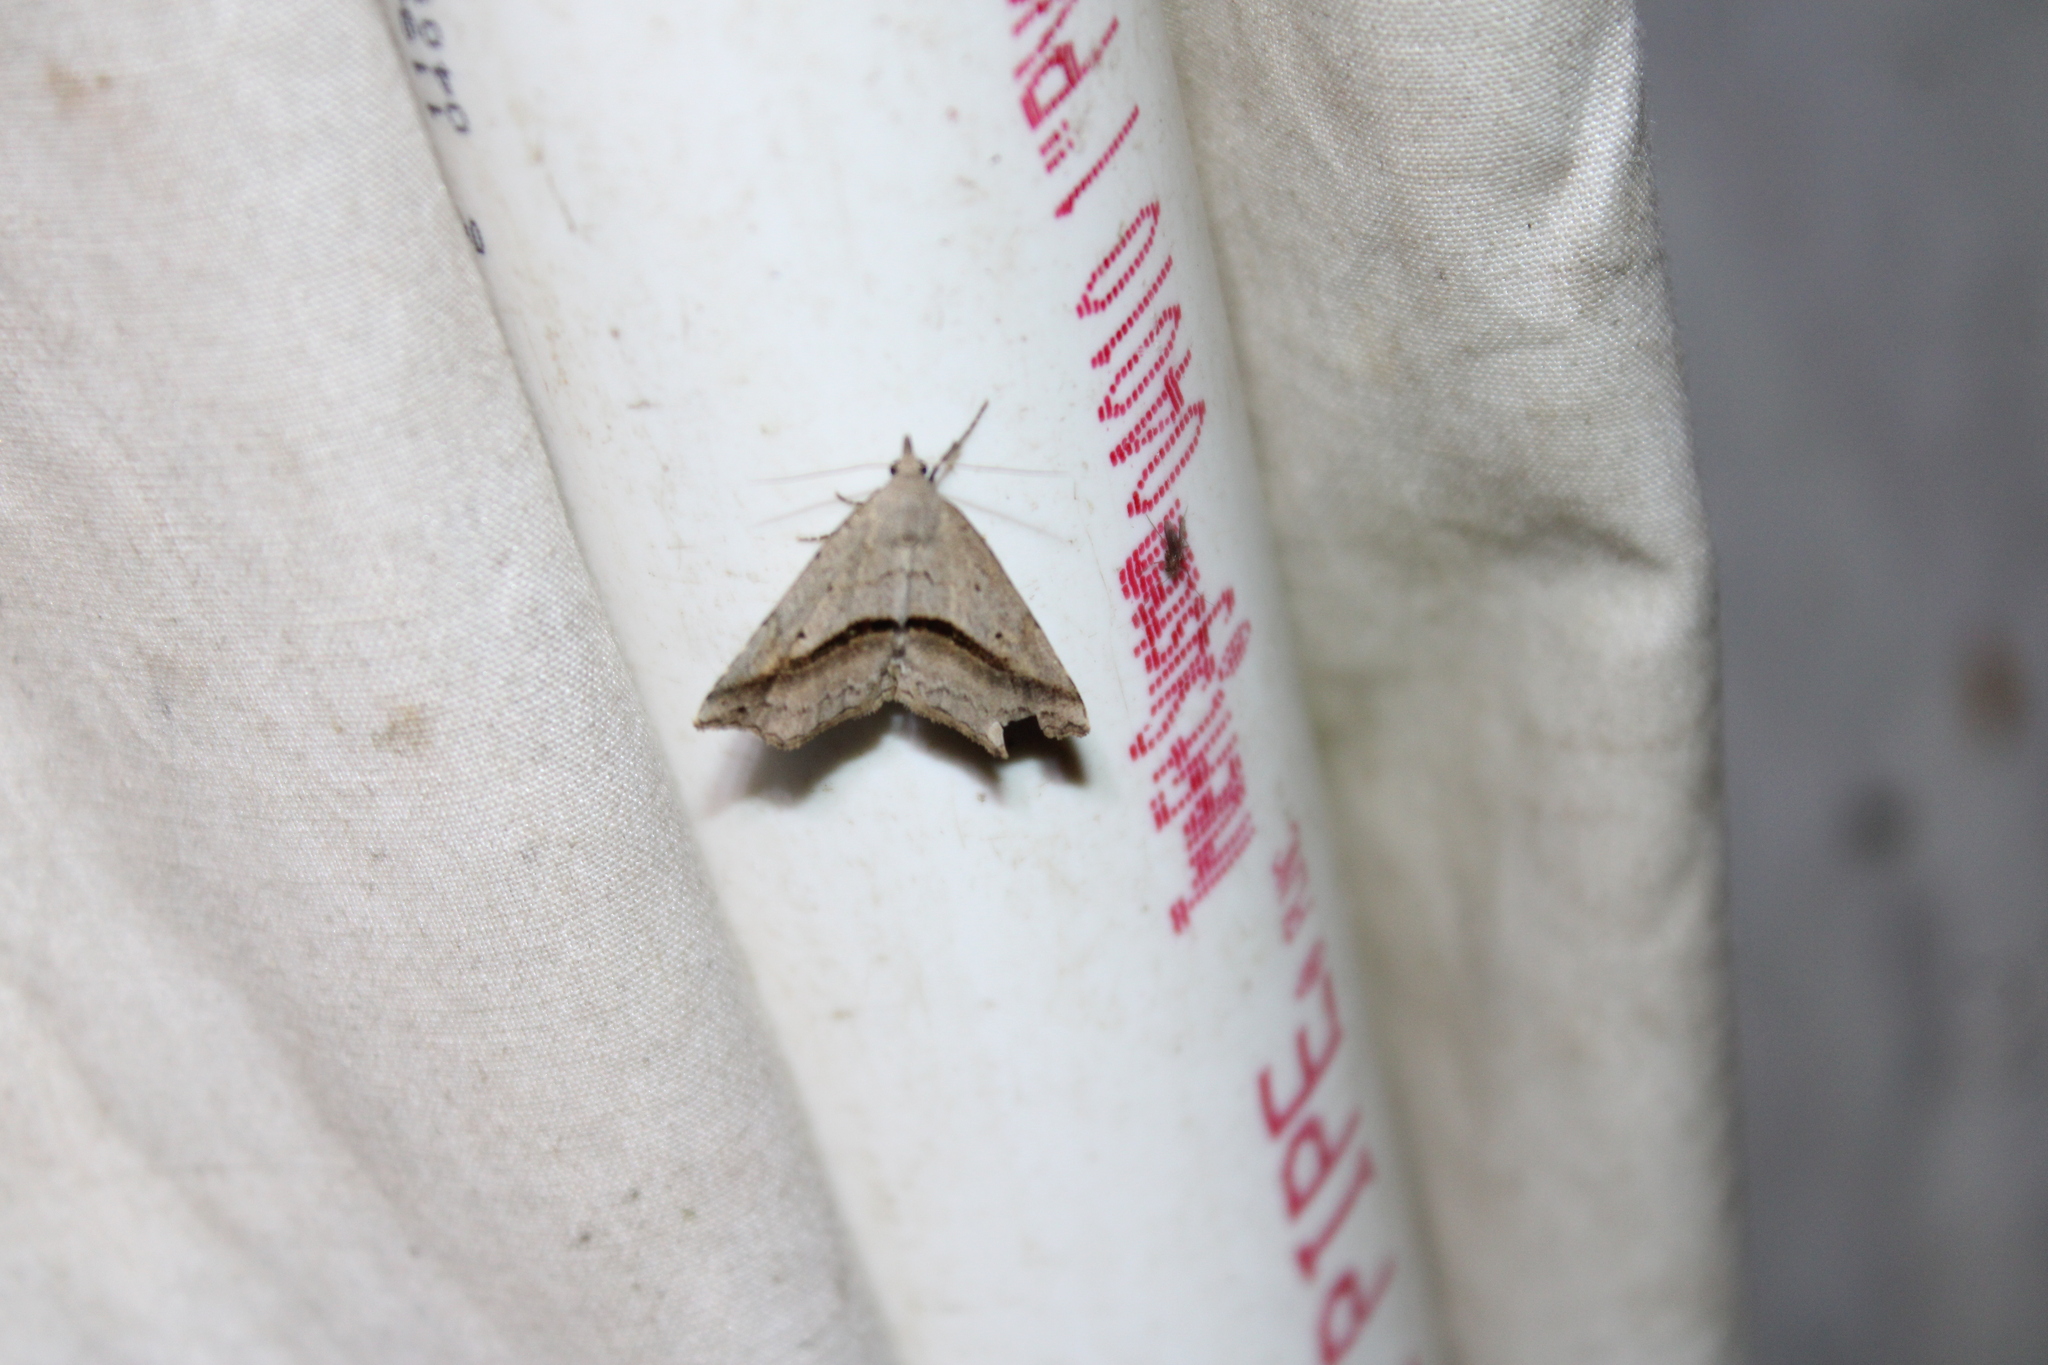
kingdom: Animalia
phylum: Arthropoda
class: Insecta
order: Lepidoptera
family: Erebidae
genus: Spargaloma
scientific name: Spargaloma perditalis
